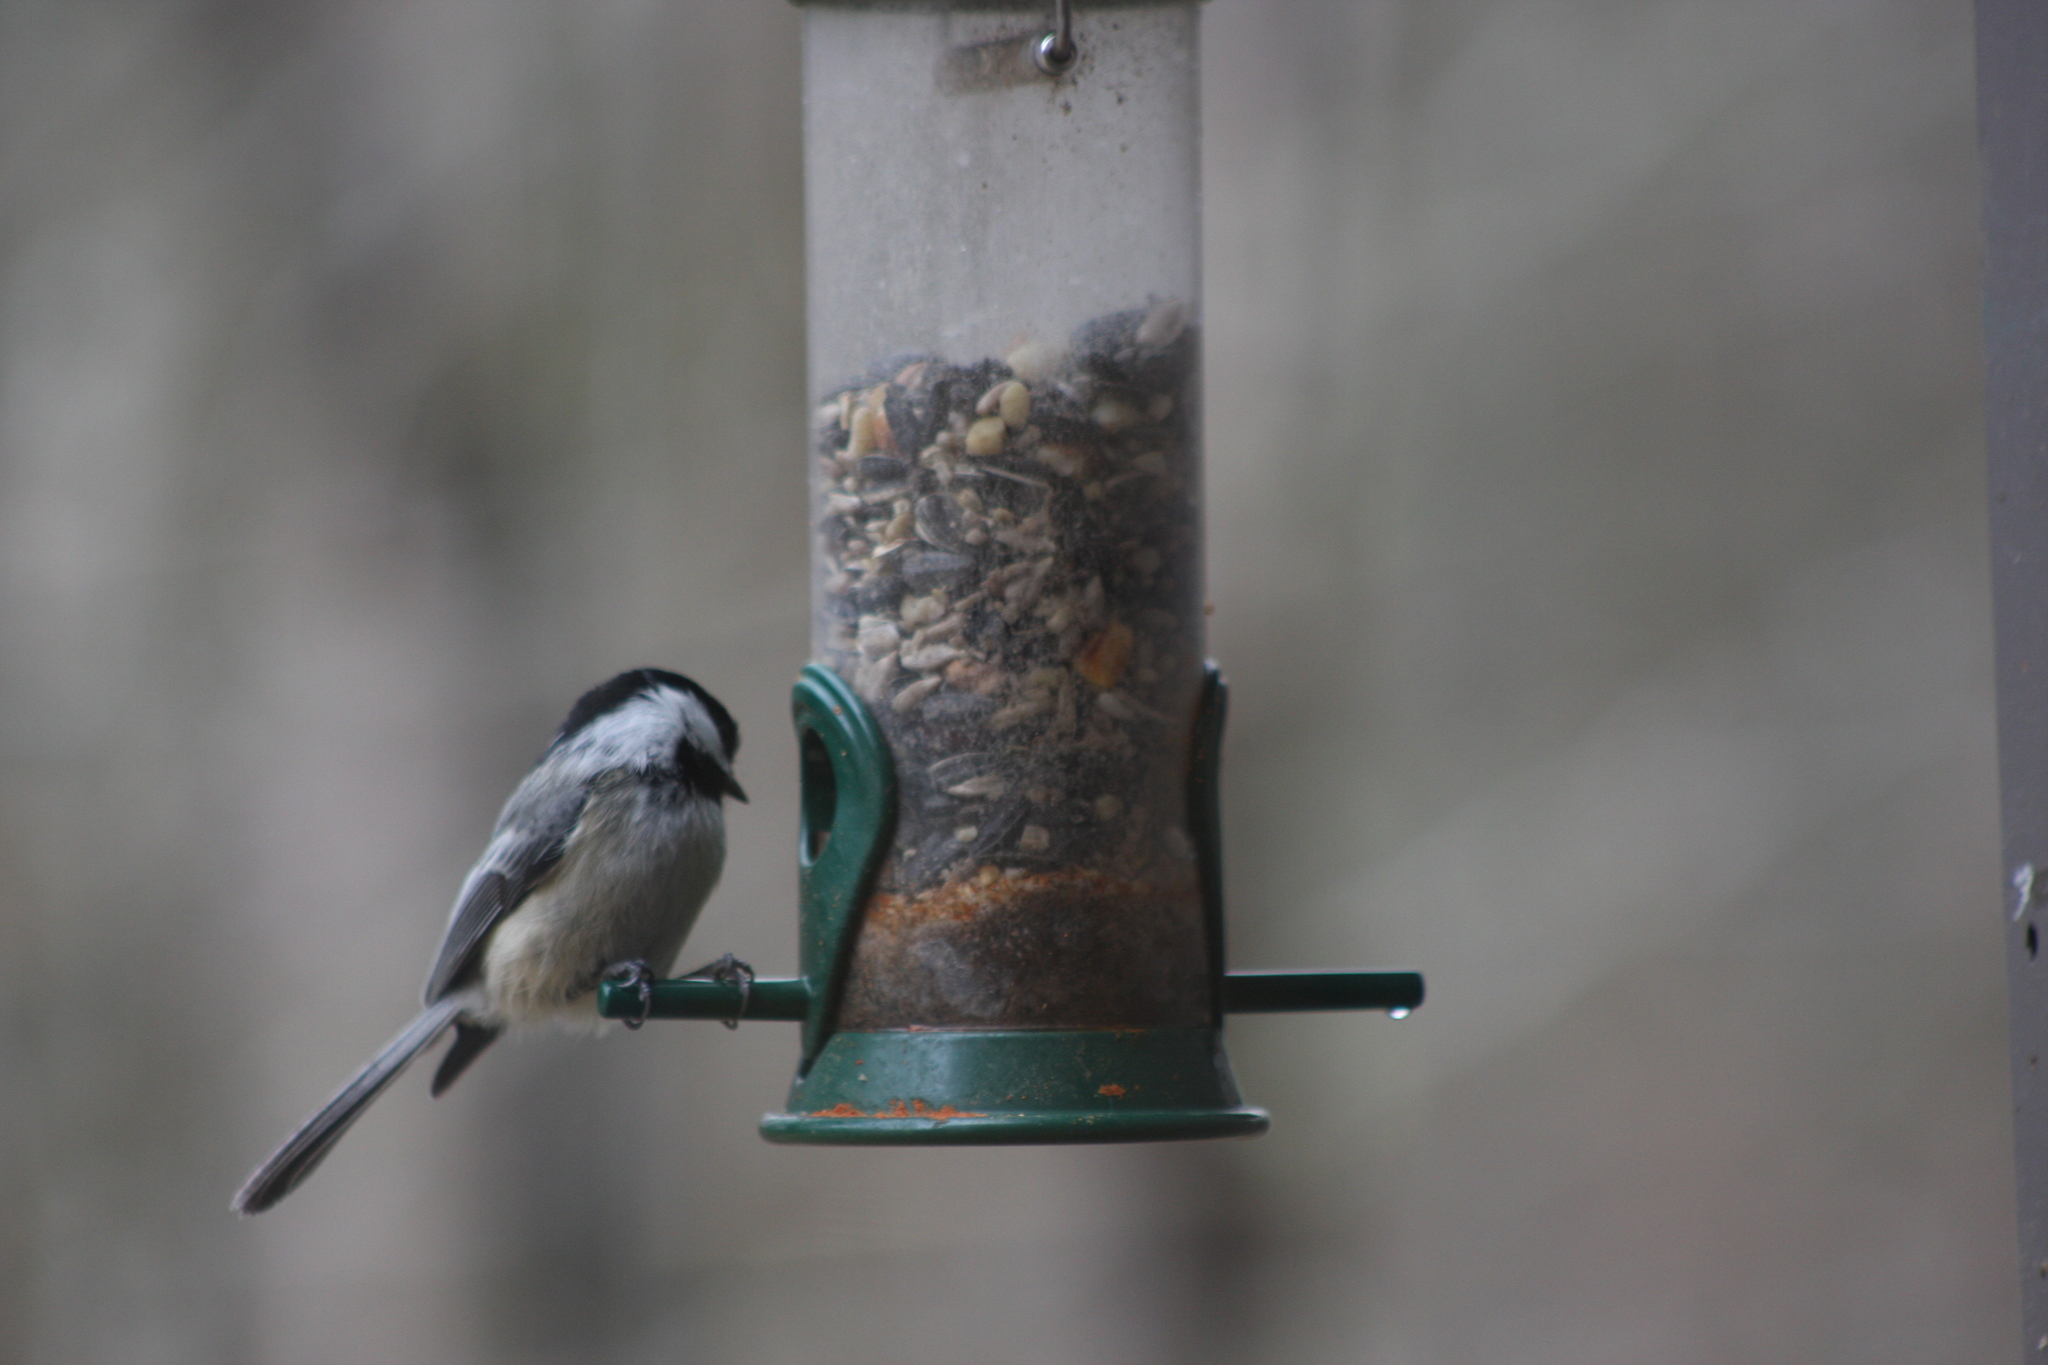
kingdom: Animalia
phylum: Chordata
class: Aves
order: Passeriformes
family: Paridae
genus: Poecile
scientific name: Poecile atricapillus
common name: Black-capped chickadee
